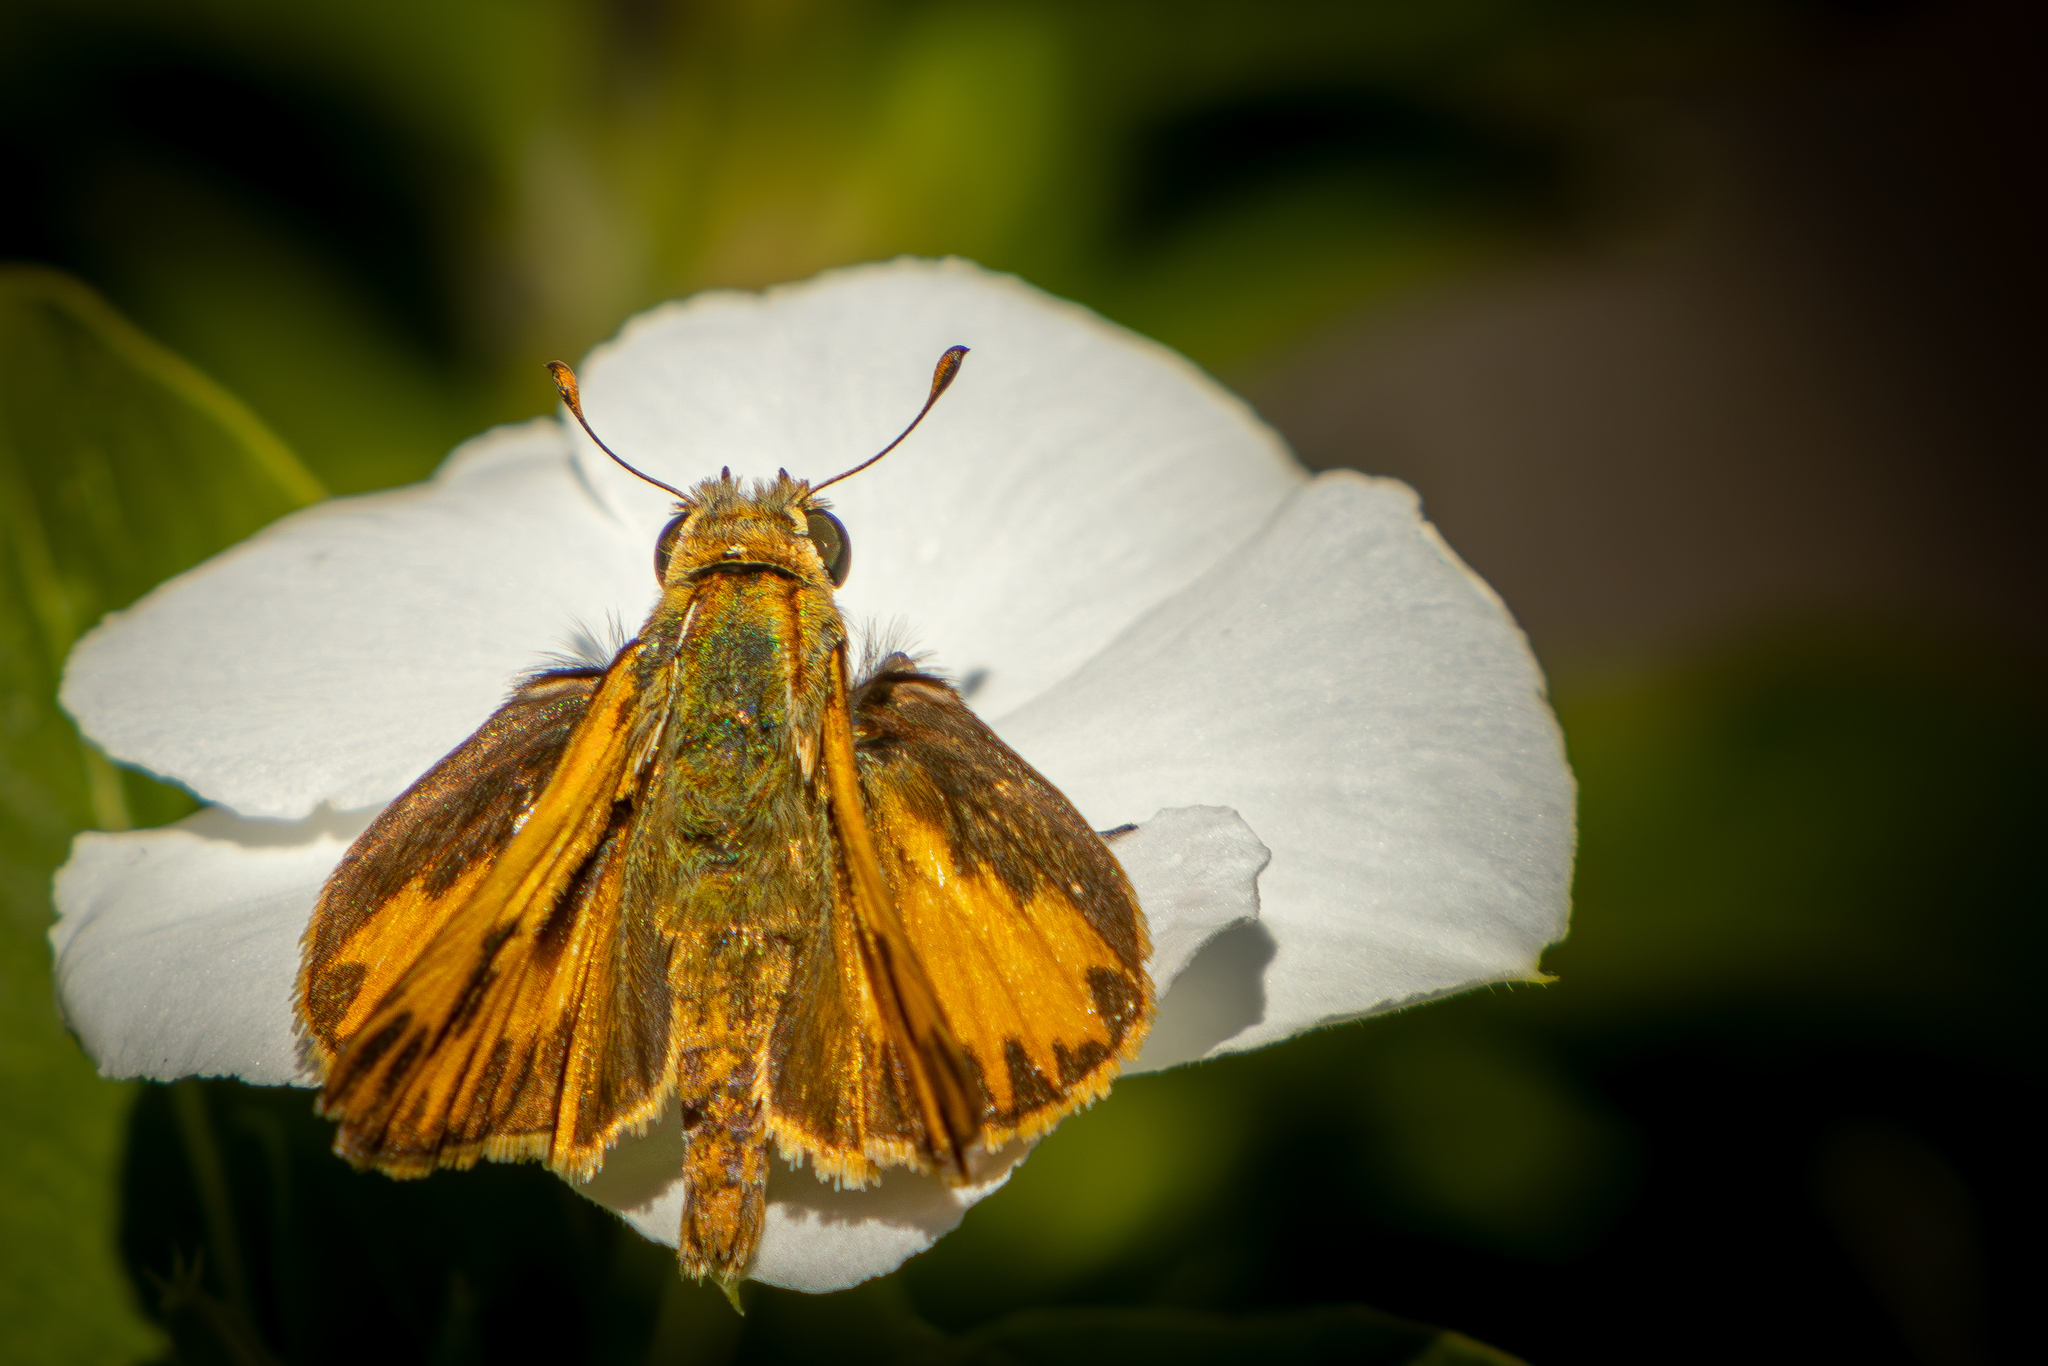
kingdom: Animalia
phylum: Arthropoda
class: Insecta
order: Lepidoptera
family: Hesperiidae
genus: Hylephila
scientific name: Hylephila phyleus
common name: Fiery skipper
